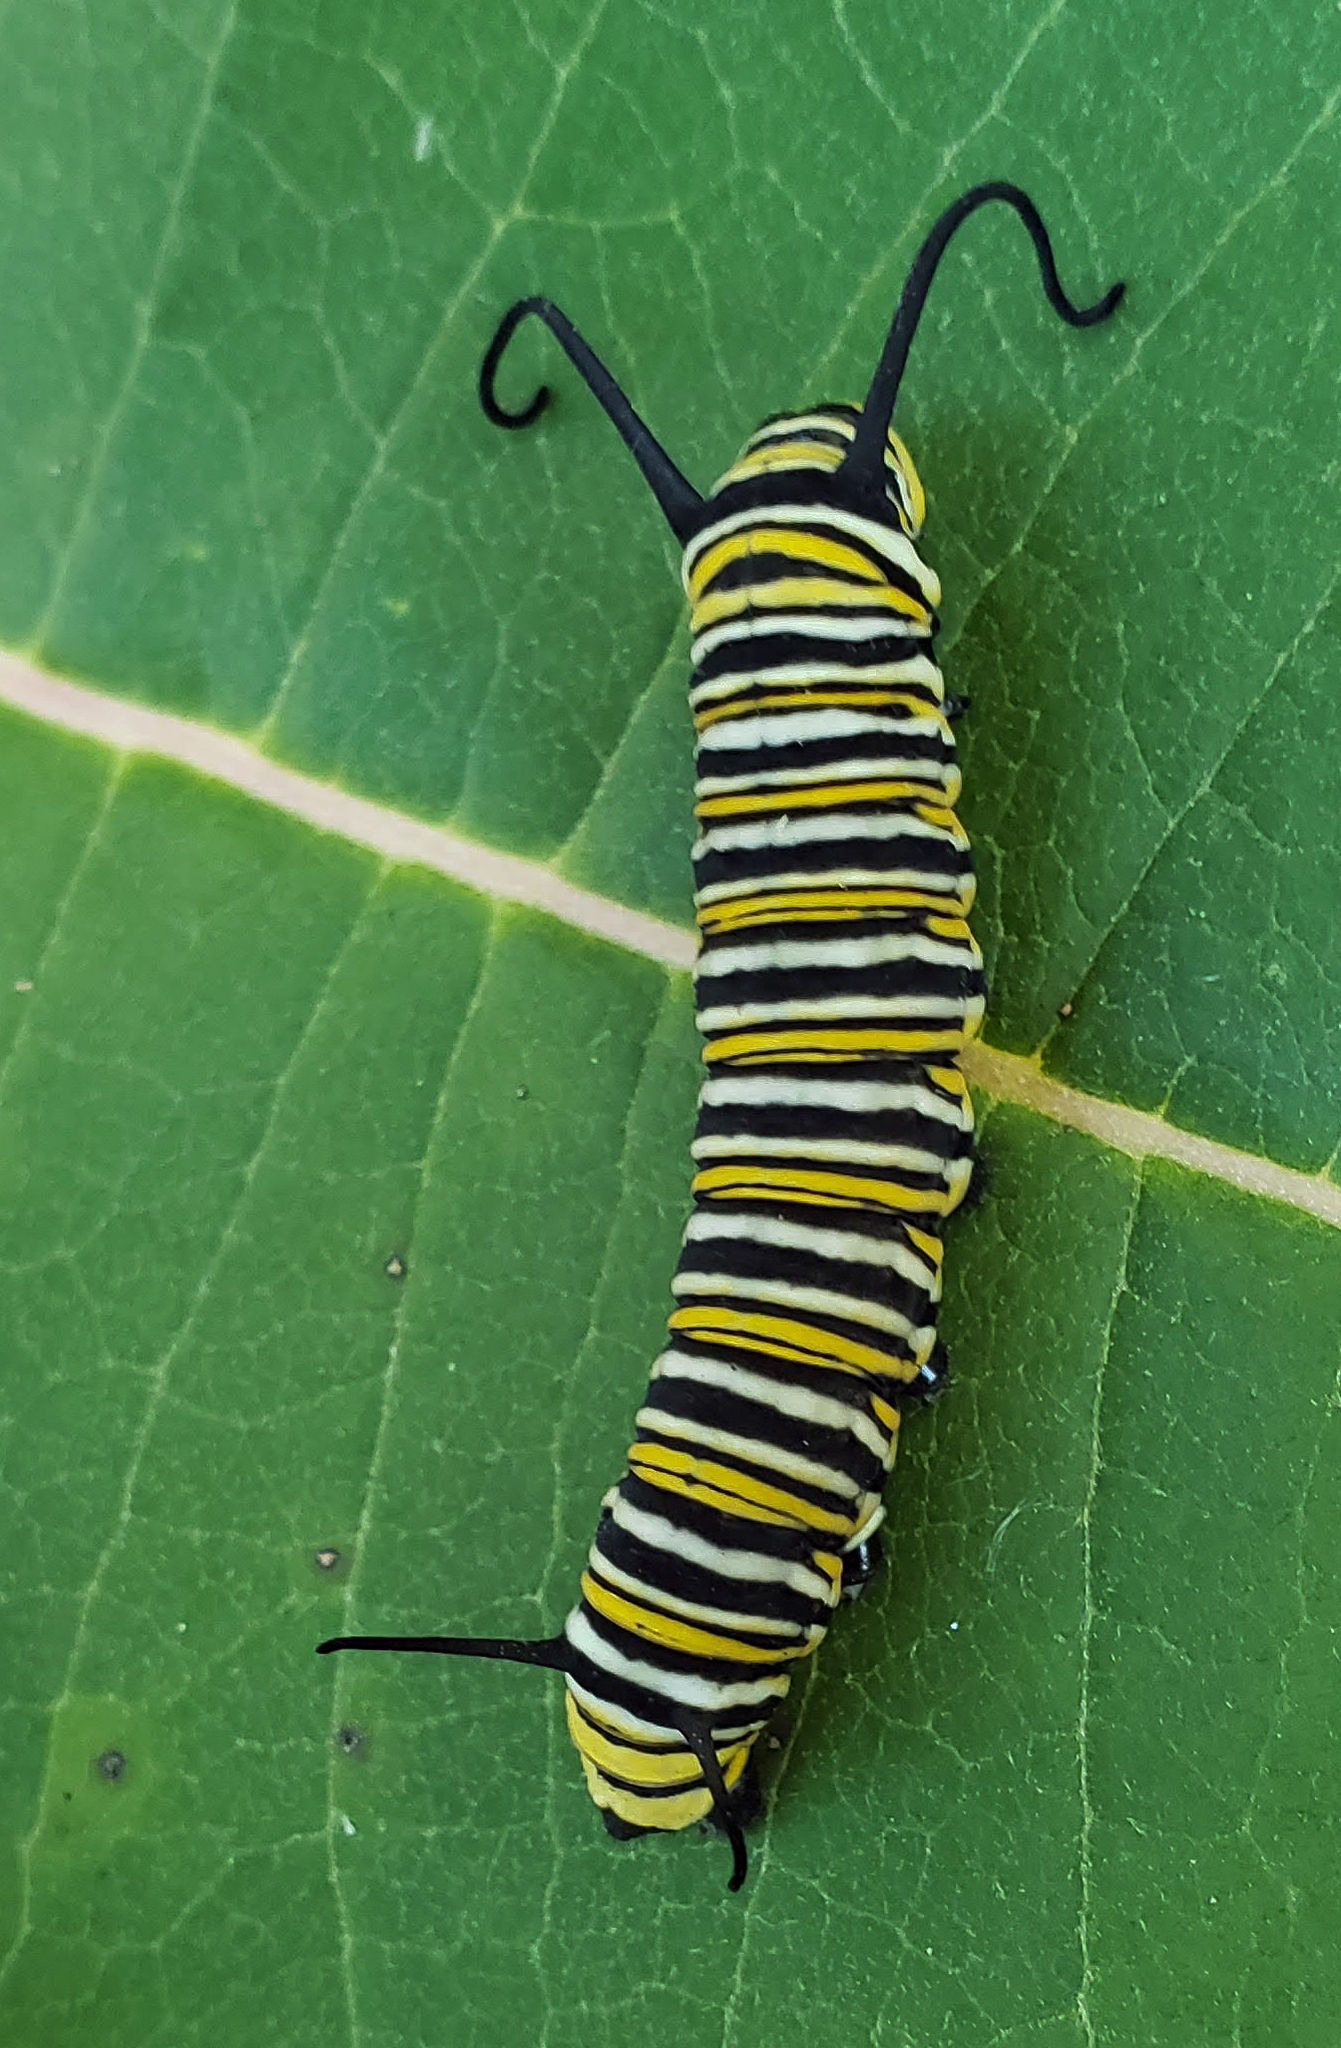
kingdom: Animalia
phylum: Arthropoda
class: Insecta
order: Lepidoptera
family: Nymphalidae
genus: Danaus
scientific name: Danaus plexippus
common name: Monarch
